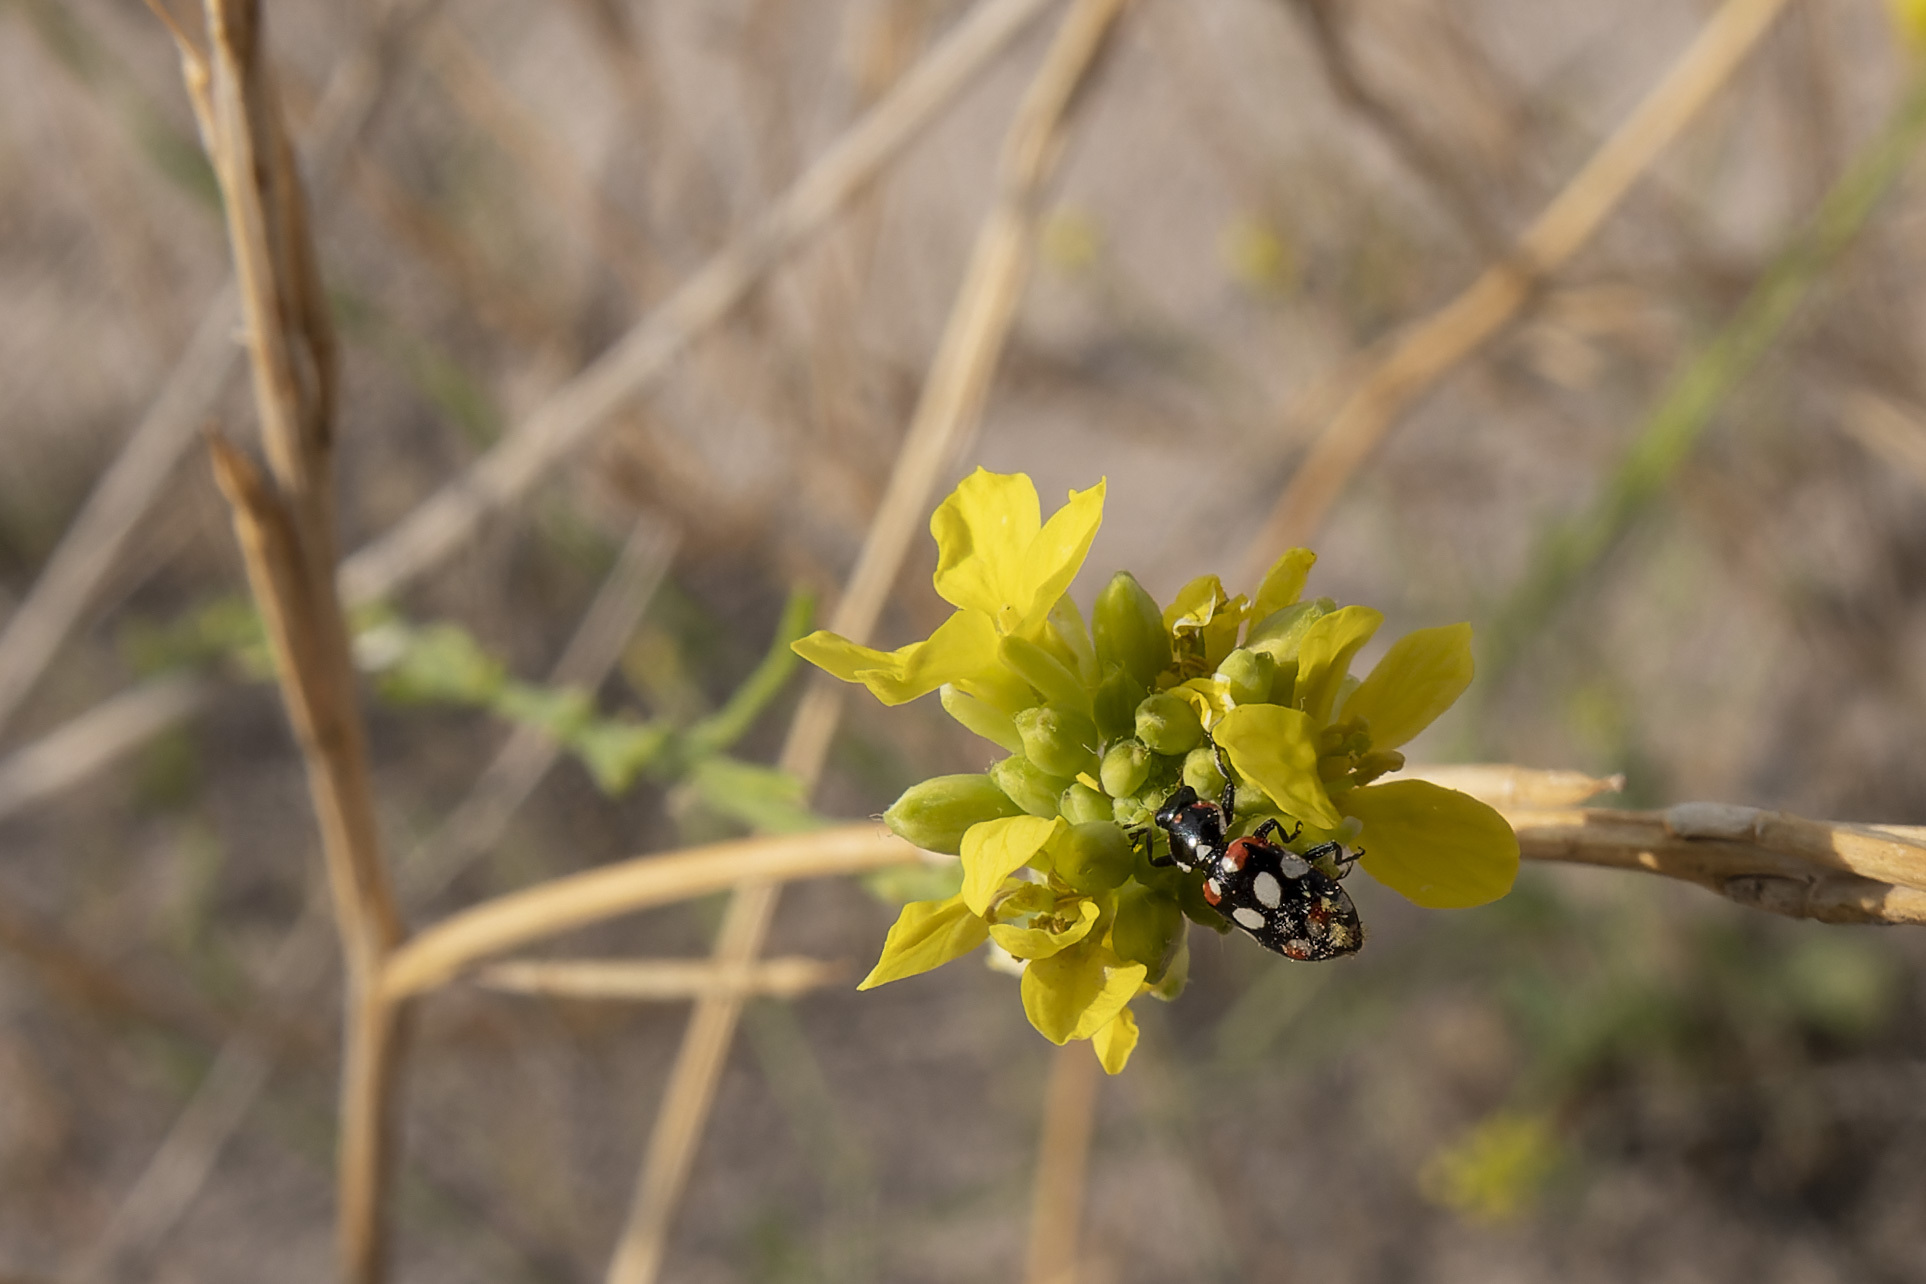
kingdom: Animalia
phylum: Arthropoda
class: Insecta
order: Coleoptera
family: Coccinellidae
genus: Eriopis
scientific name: Eriopis connexa
